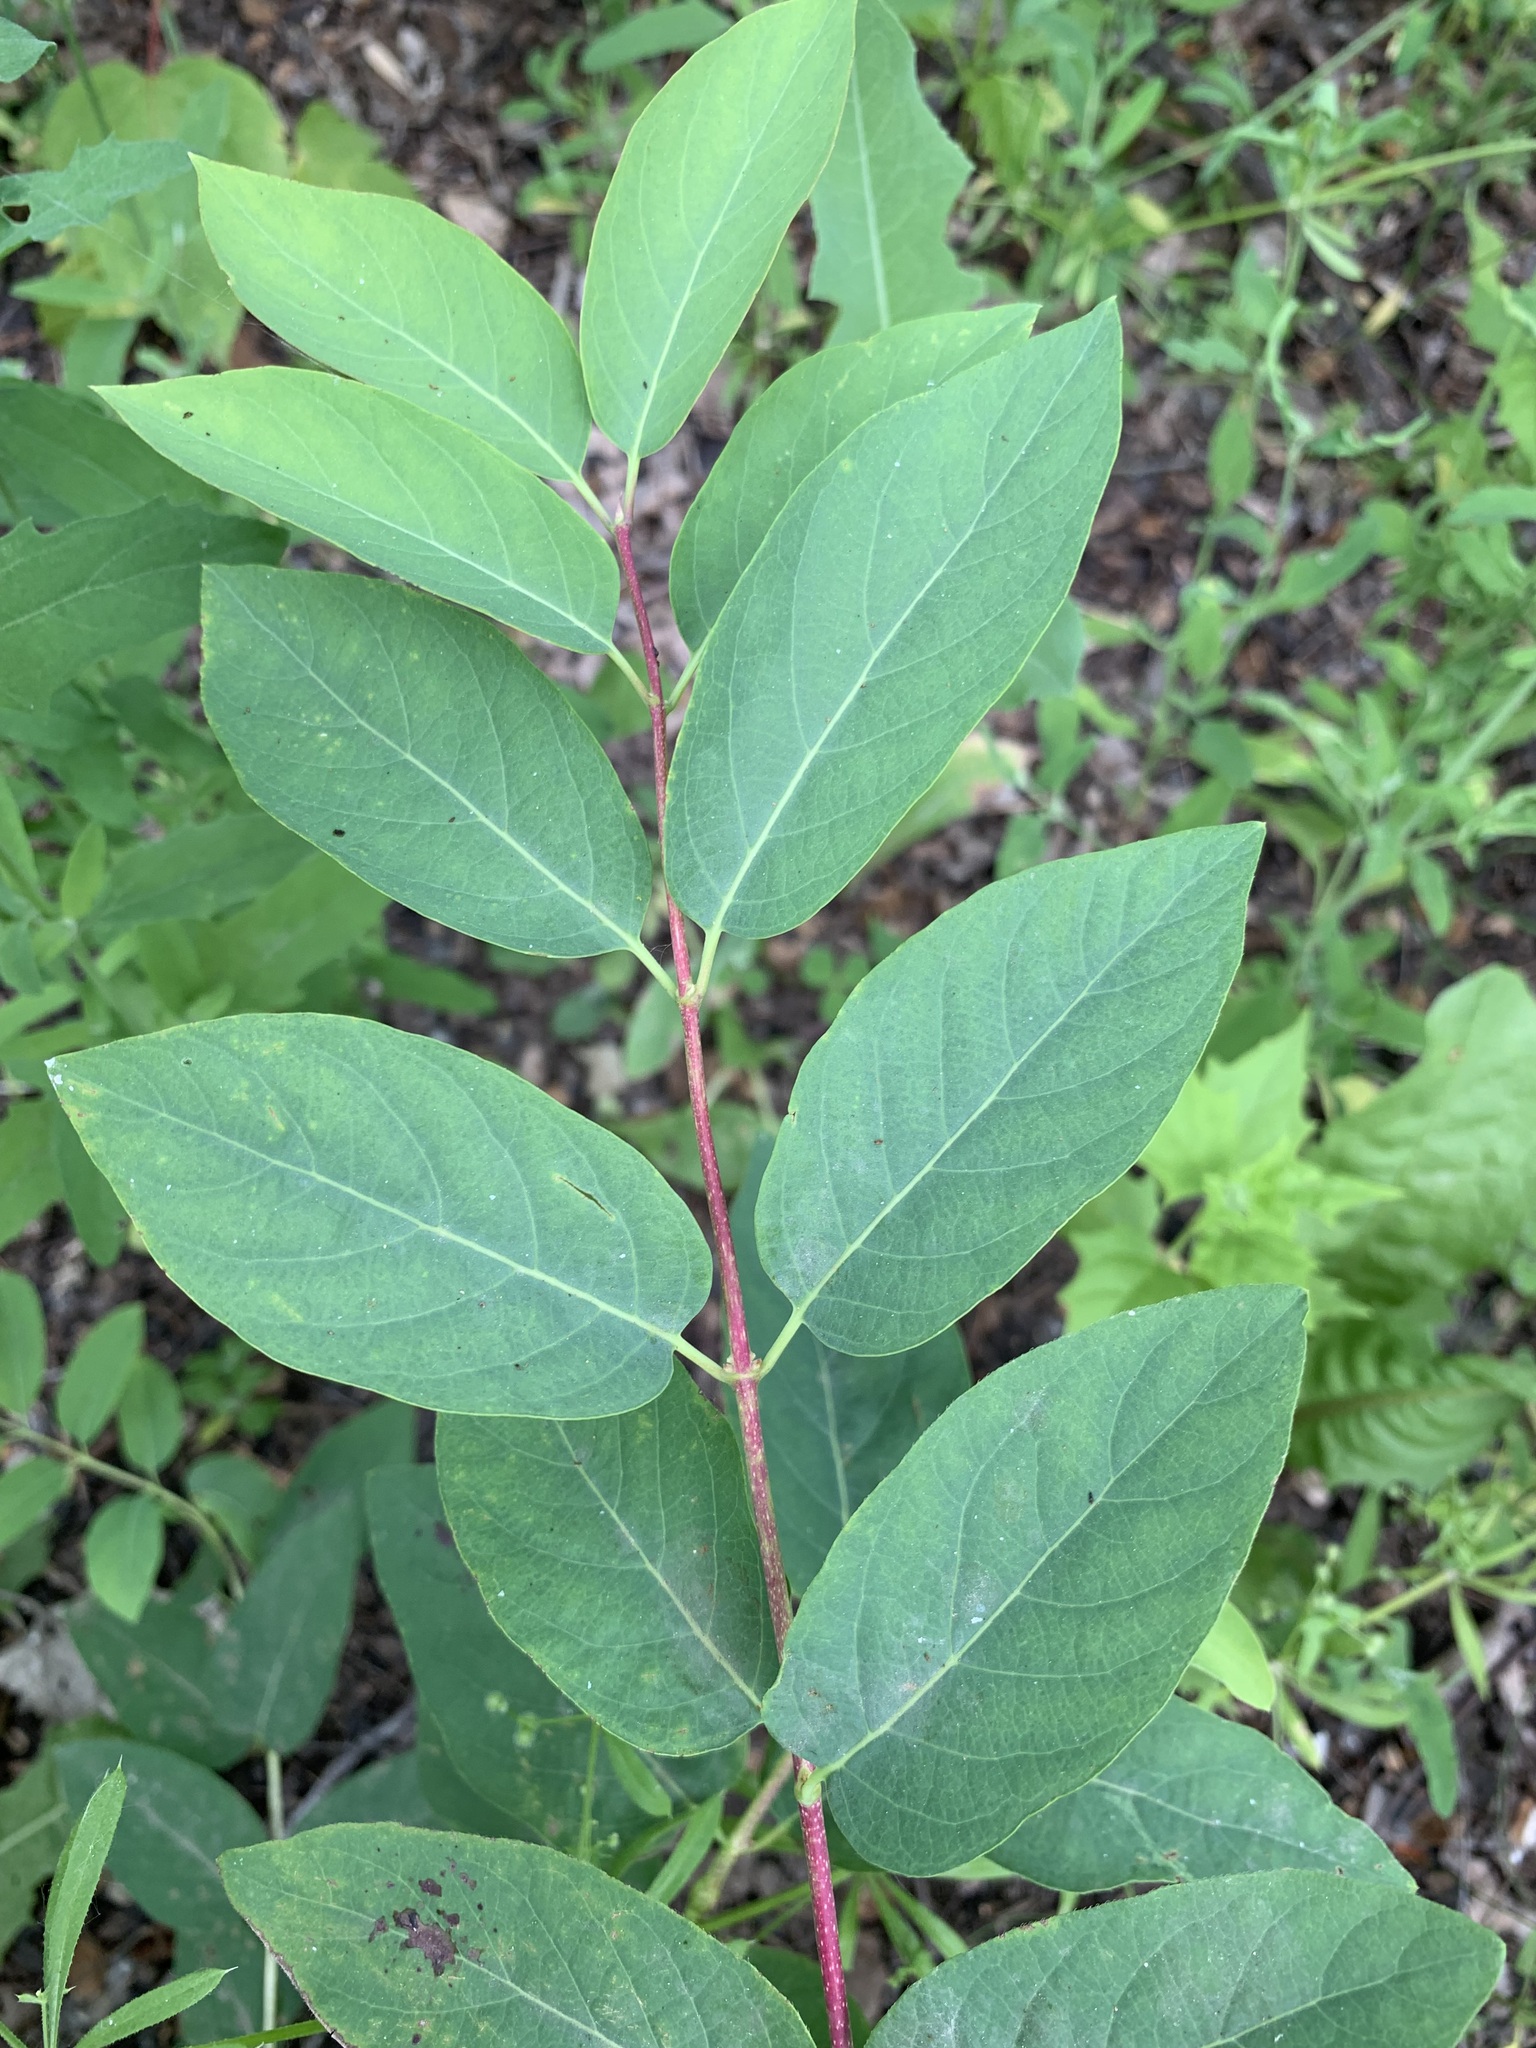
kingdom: Plantae
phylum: Tracheophyta
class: Magnoliopsida
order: Dipsacales
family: Caprifoliaceae
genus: Lonicera
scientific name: Lonicera tatarica
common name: Tatarian honeysuckle
